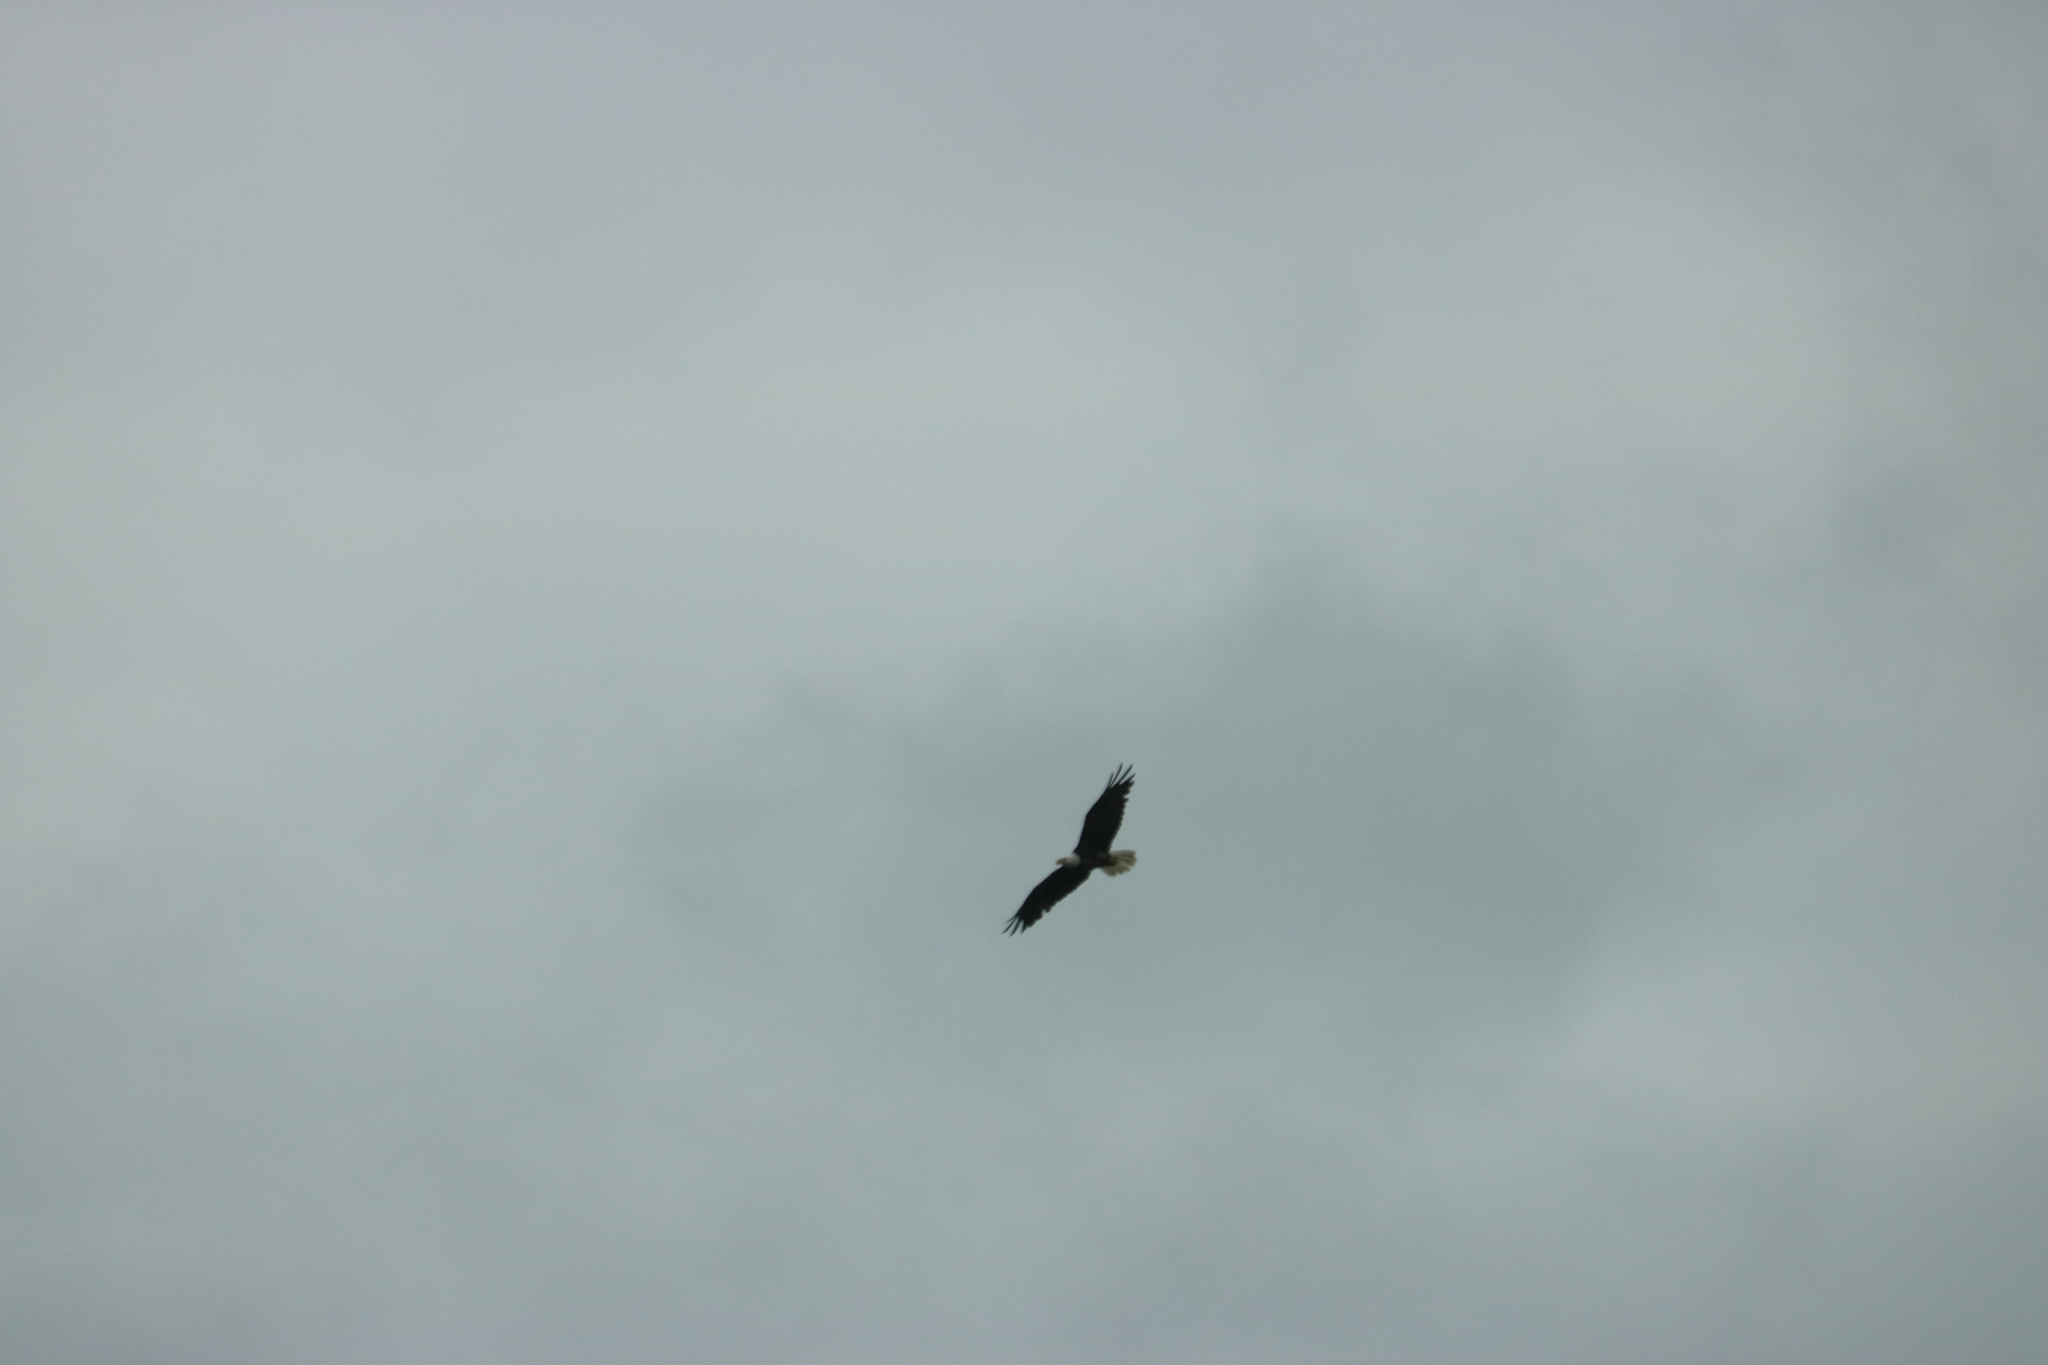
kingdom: Animalia
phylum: Chordata
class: Aves
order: Accipitriformes
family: Accipitridae
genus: Haliaeetus
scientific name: Haliaeetus leucocephalus
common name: Bald eagle
